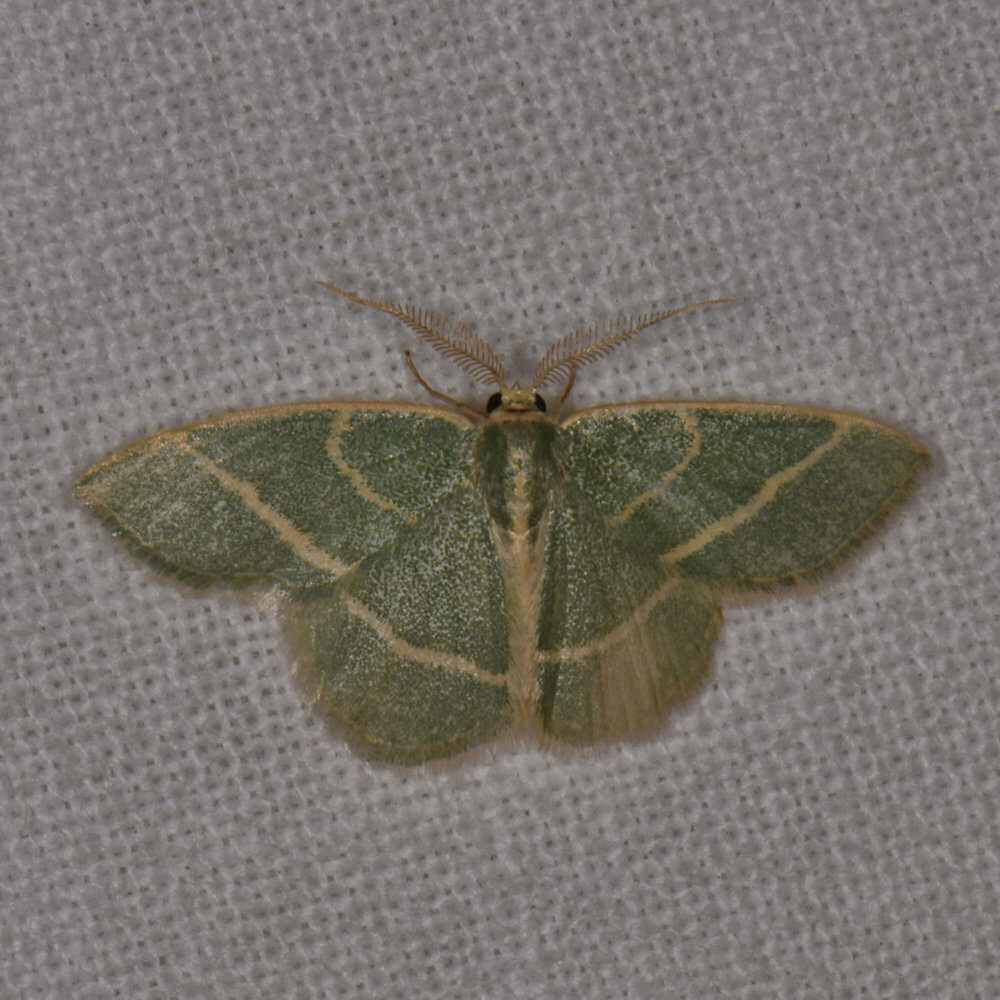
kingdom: Animalia
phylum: Arthropoda
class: Insecta
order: Lepidoptera
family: Geometridae
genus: Chlorochlamys
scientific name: Chlorochlamys chloroleucaria
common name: Blackberry looper
